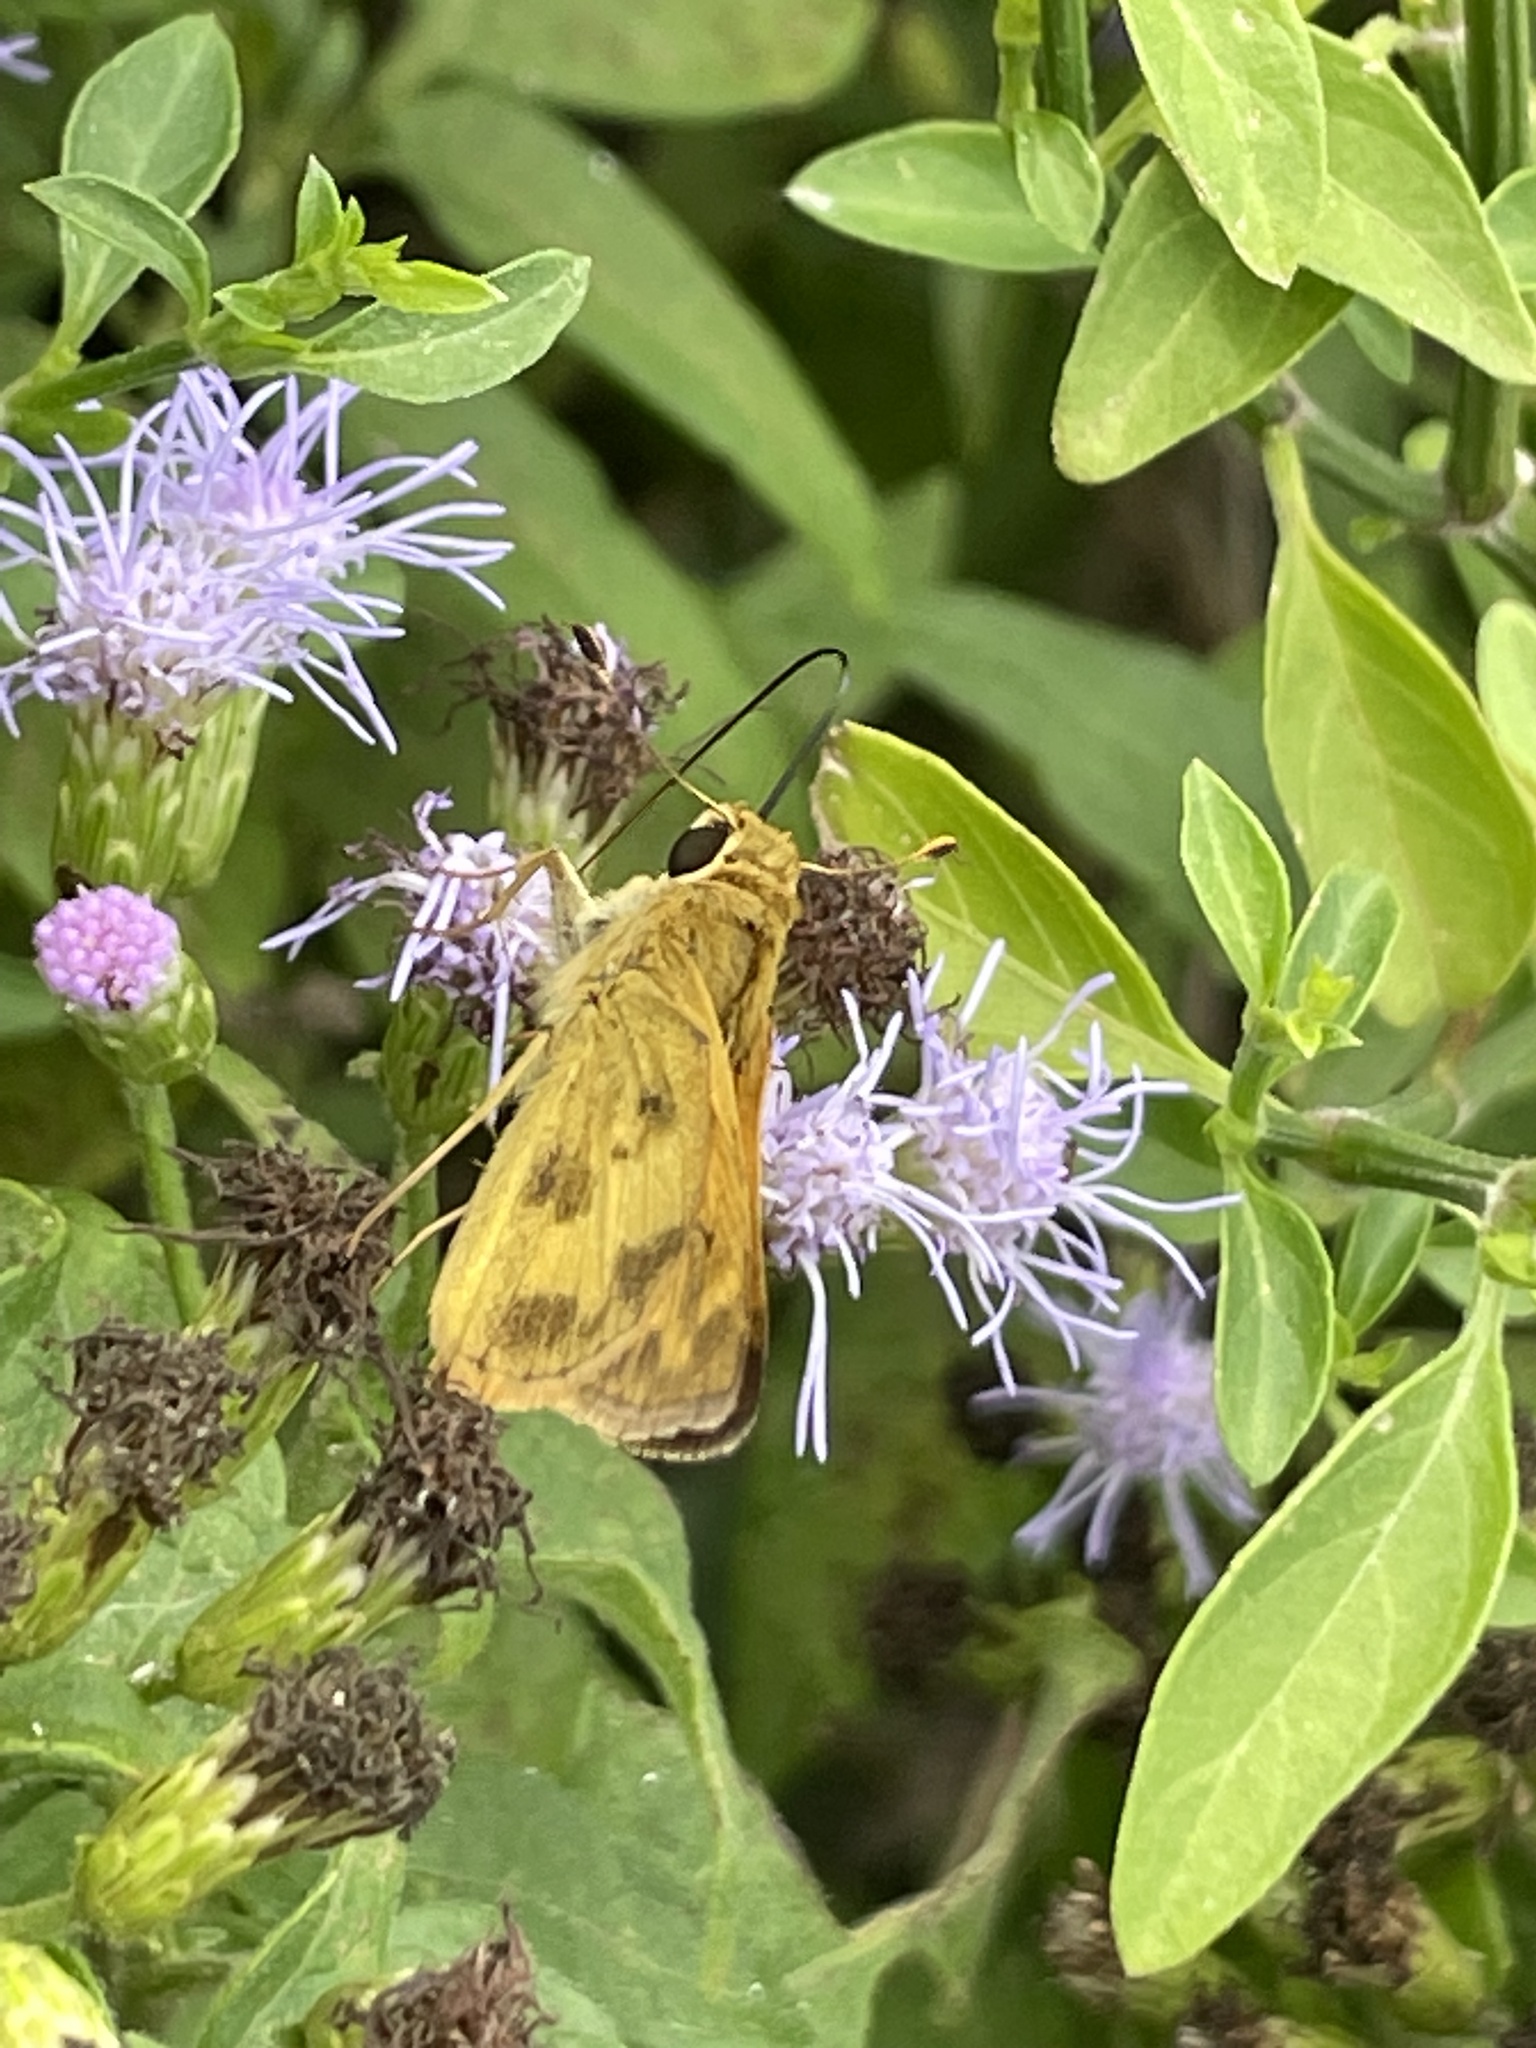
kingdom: Animalia
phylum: Arthropoda
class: Insecta
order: Lepidoptera
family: Hesperiidae
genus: Polites
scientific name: Polites vibex
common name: Whirlabout
